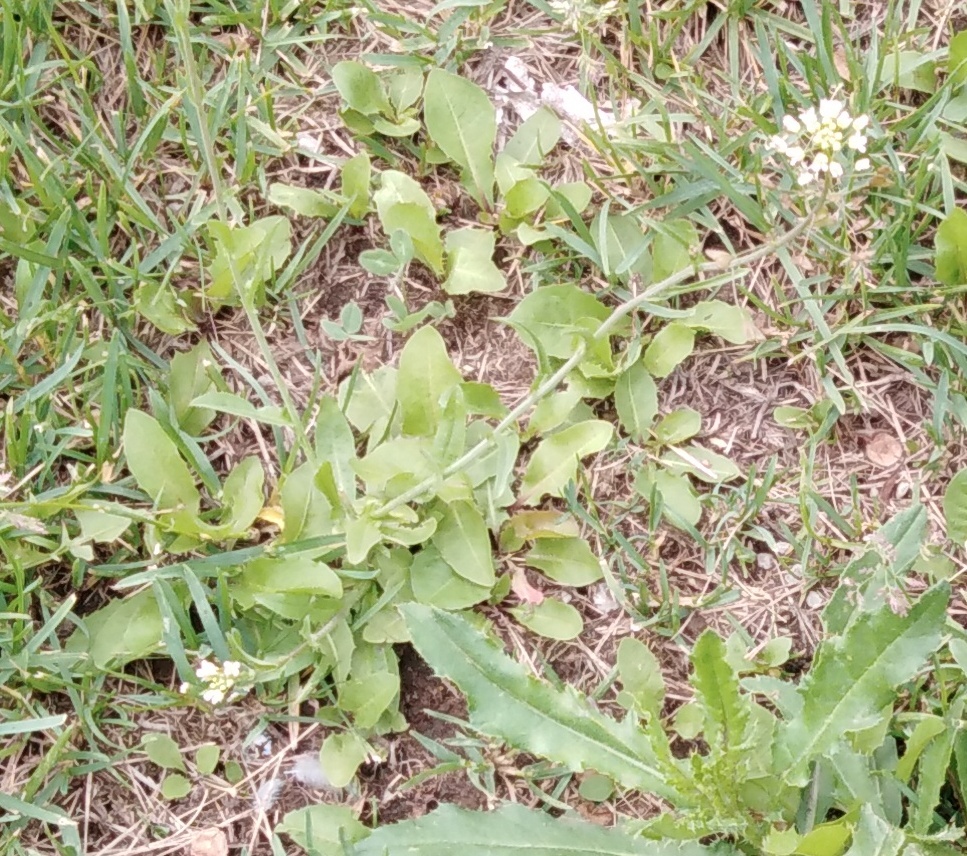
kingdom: Plantae
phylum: Tracheophyta
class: Magnoliopsida
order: Brassicales
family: Brassicaceae
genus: Capsella
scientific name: Capsella bursa-pastoris
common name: Shepherd's purse
